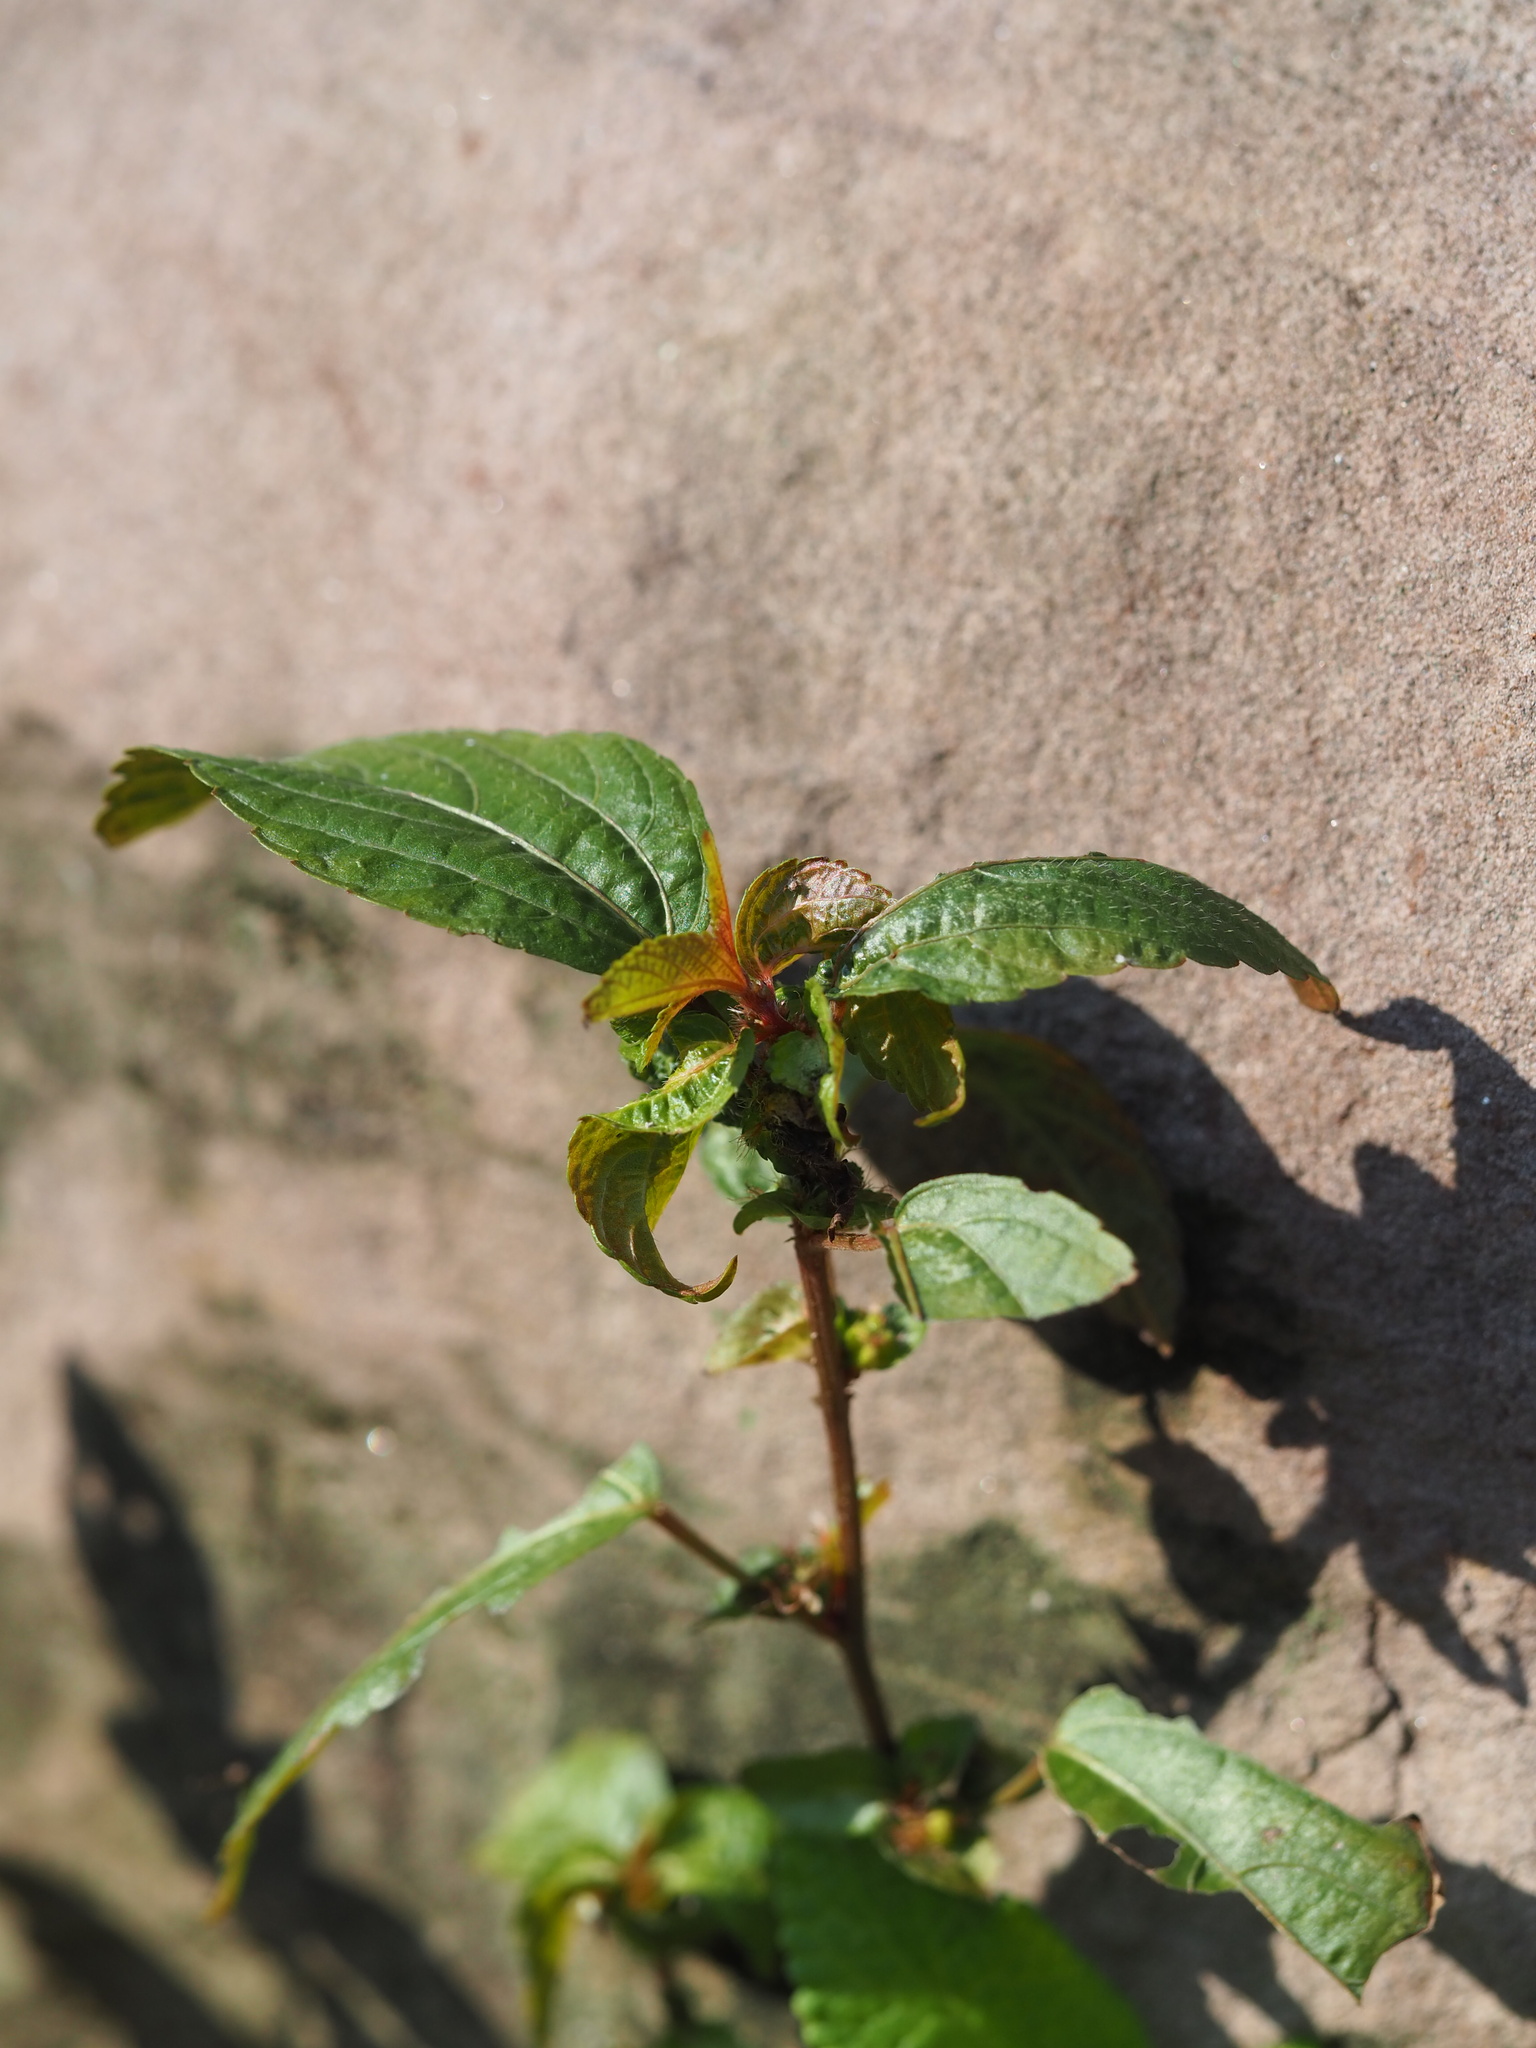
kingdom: Plantae
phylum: Tracheophyta
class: Magnoliopsida
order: Malpighiales
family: Euphorbiaceae
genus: Acalypha
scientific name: Acalypha australis
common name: Asian copperleaf
